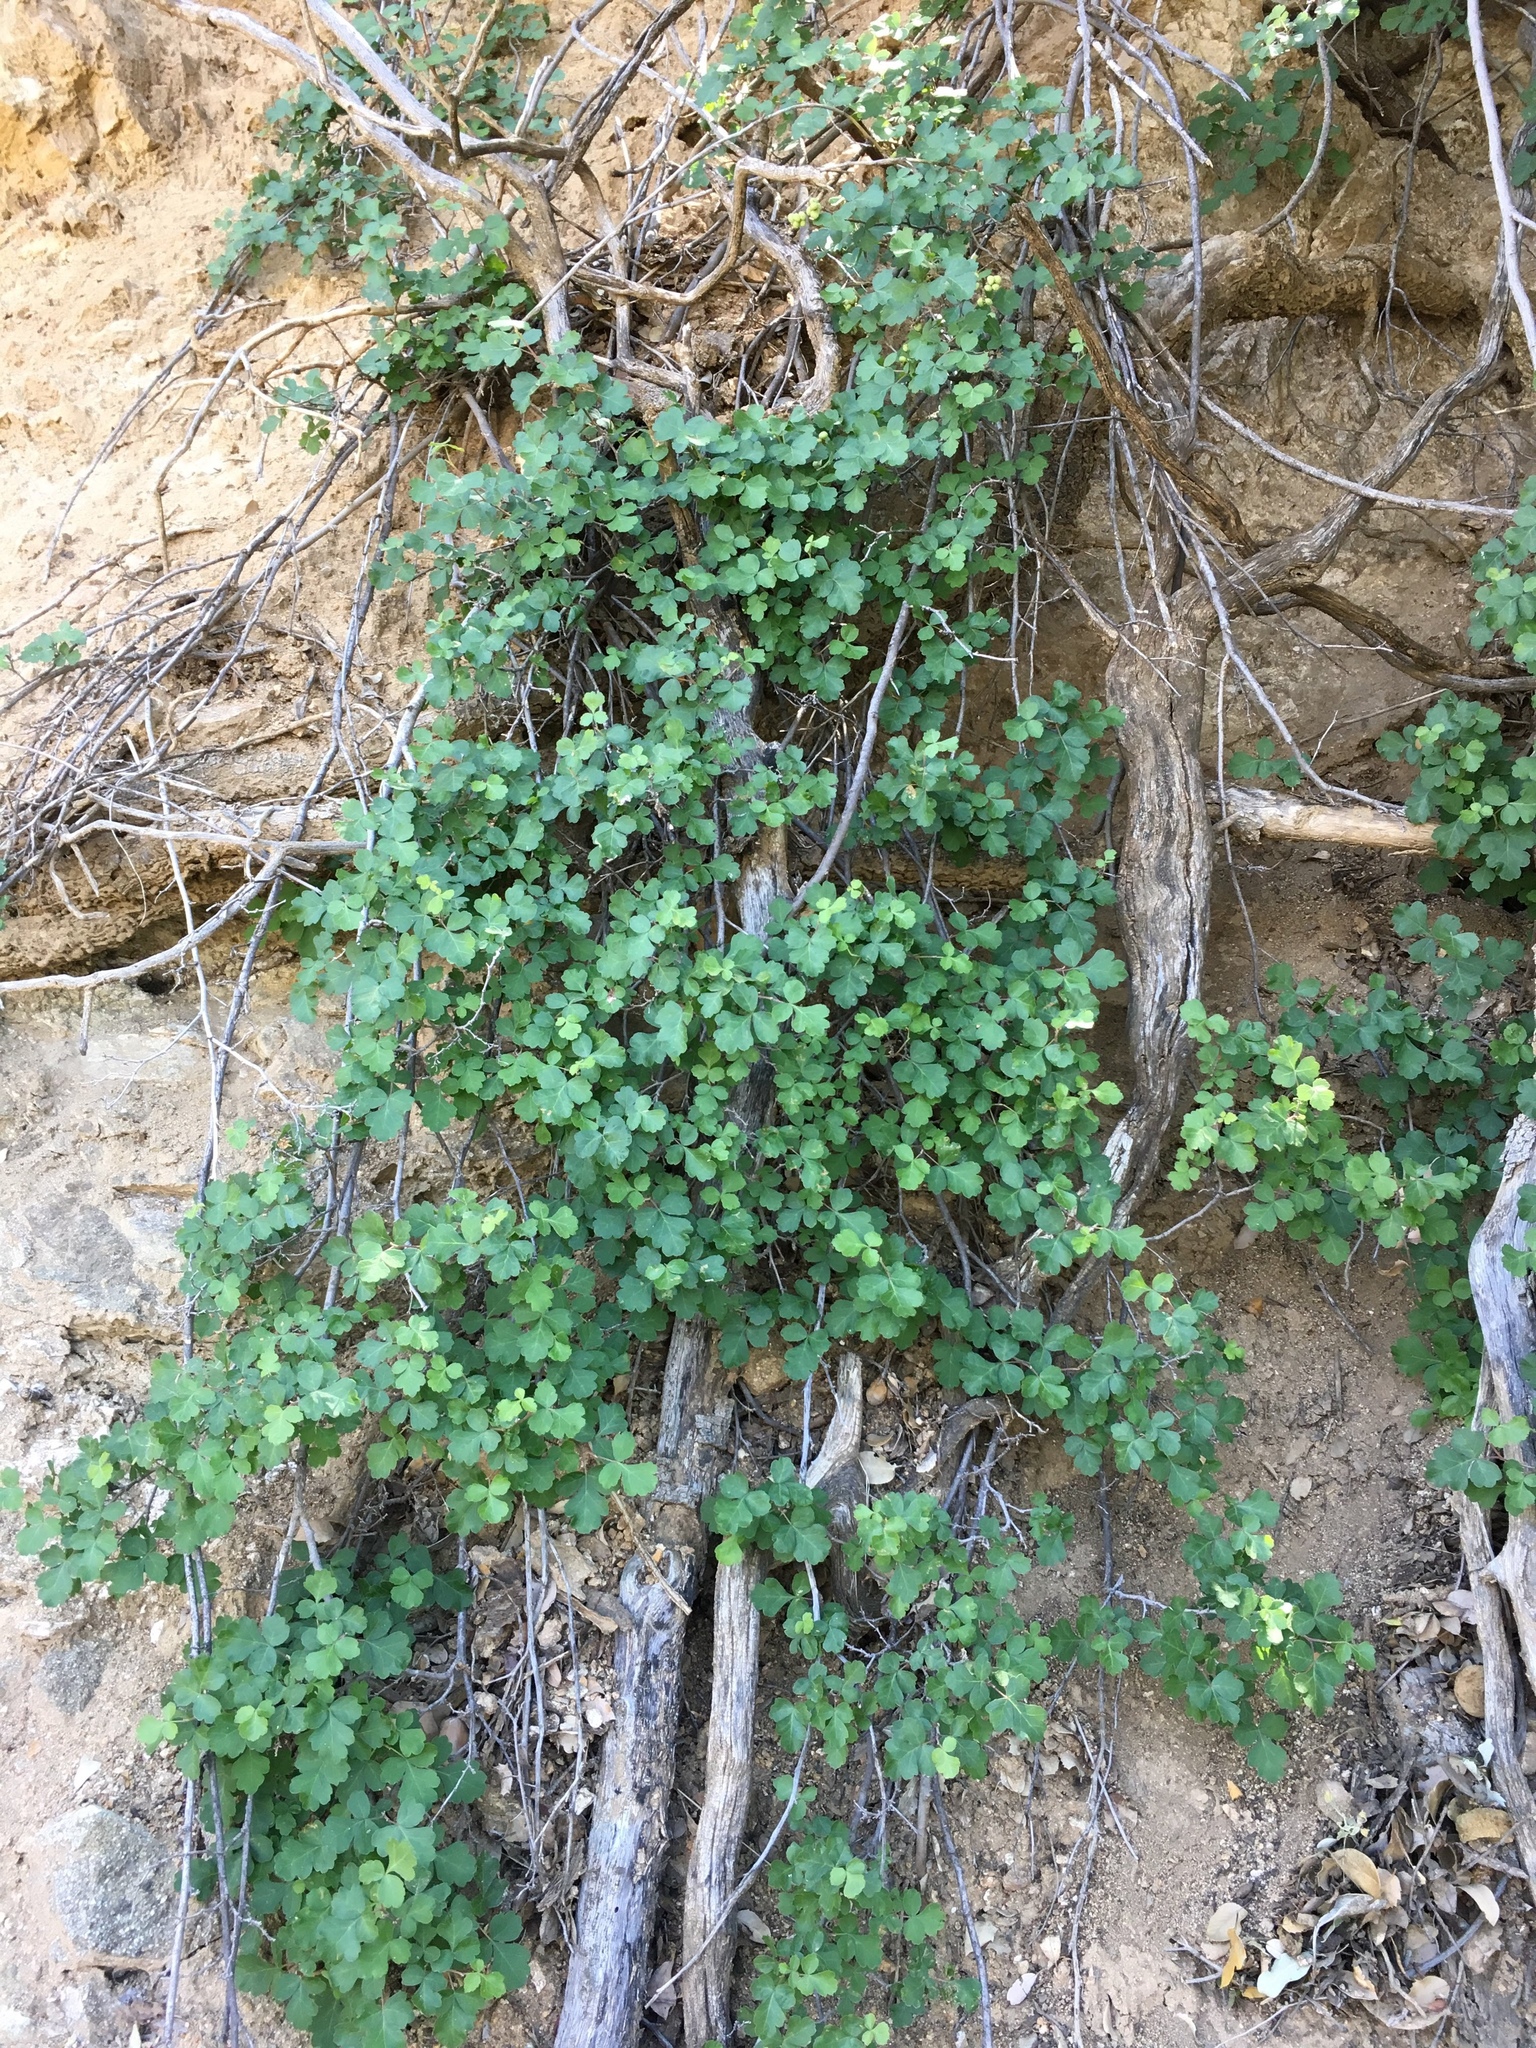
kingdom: Plantae
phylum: Tracheophyta
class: Magnoliopsida
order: Sapindales
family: Anacardiaceae
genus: Rhus
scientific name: Rhus aromatica
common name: Aromatic sumac
